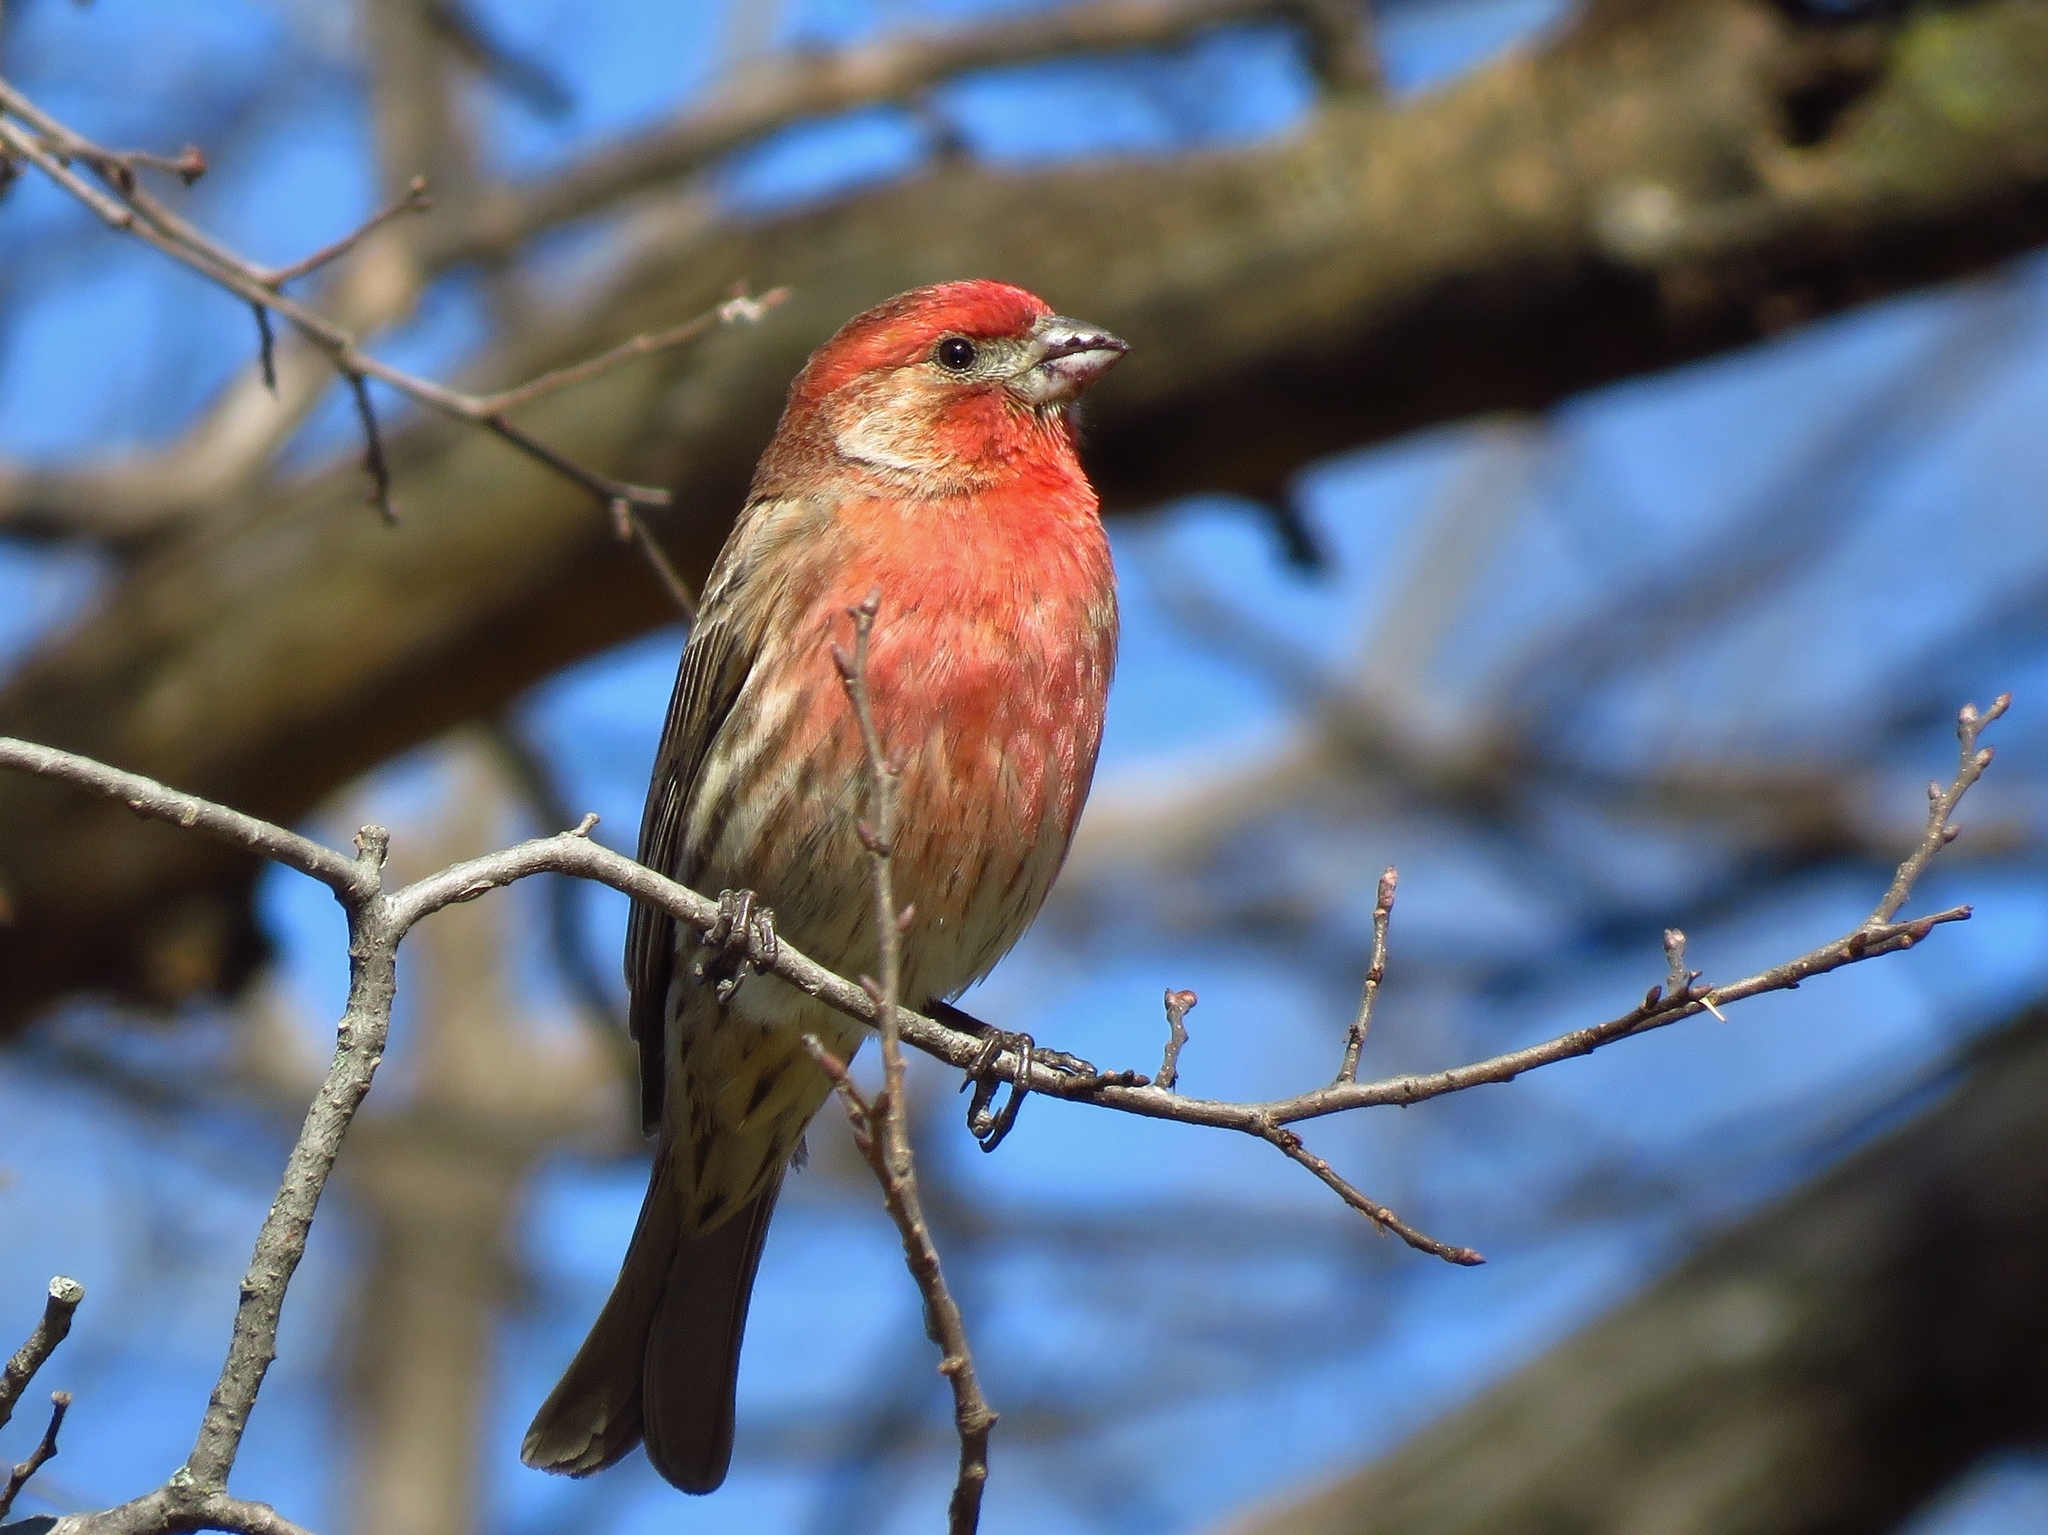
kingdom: Animalia
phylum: Chordata
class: Aves
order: Passeriformes
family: Fringillidae
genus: Haemorhous
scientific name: Haemorhous mexicanus
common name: House finch
